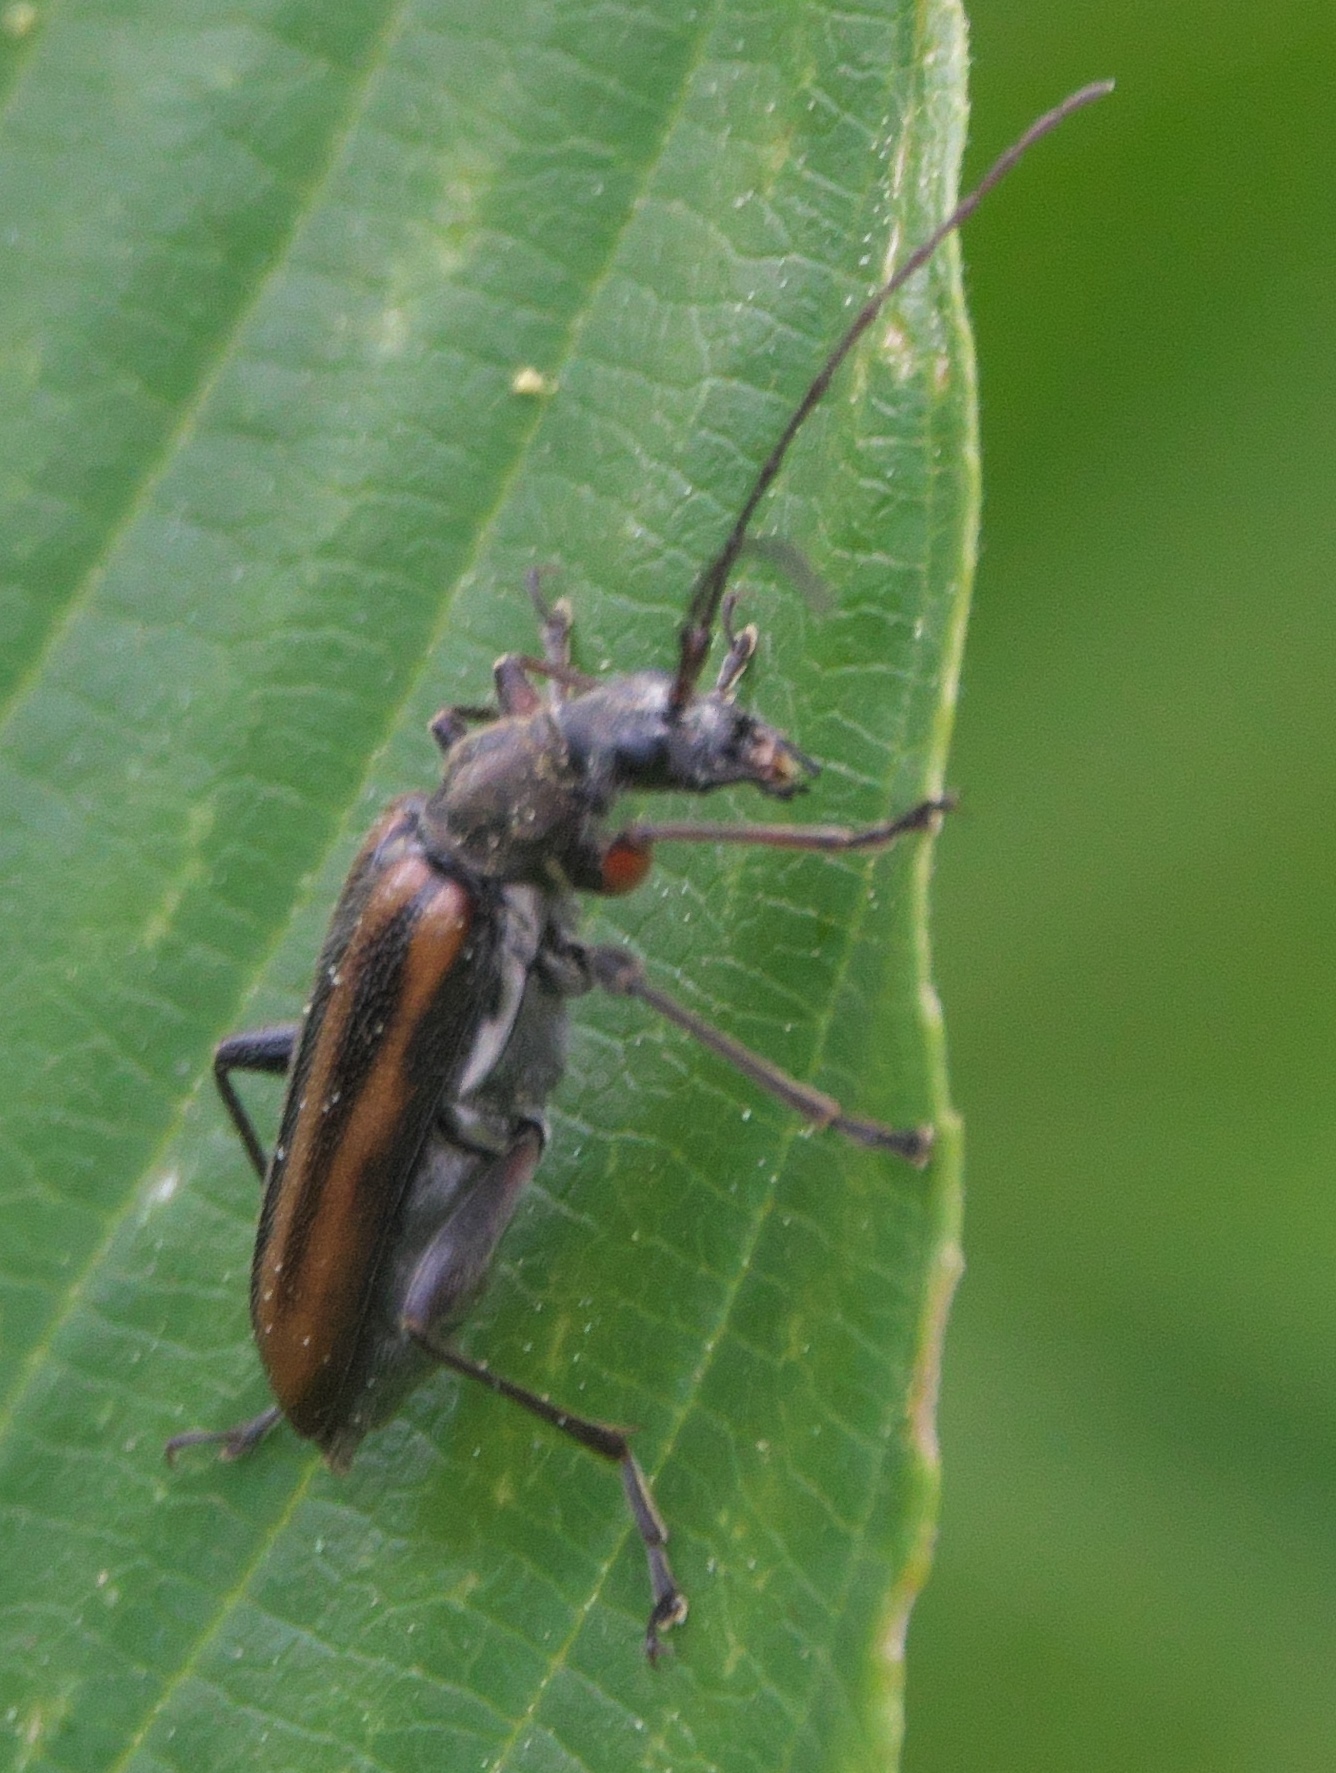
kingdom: Animalia
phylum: Arthropoda
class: Insecta
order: Coleoptera
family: Cerambycidae
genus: Cortodera
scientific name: Cortodera longicornis
